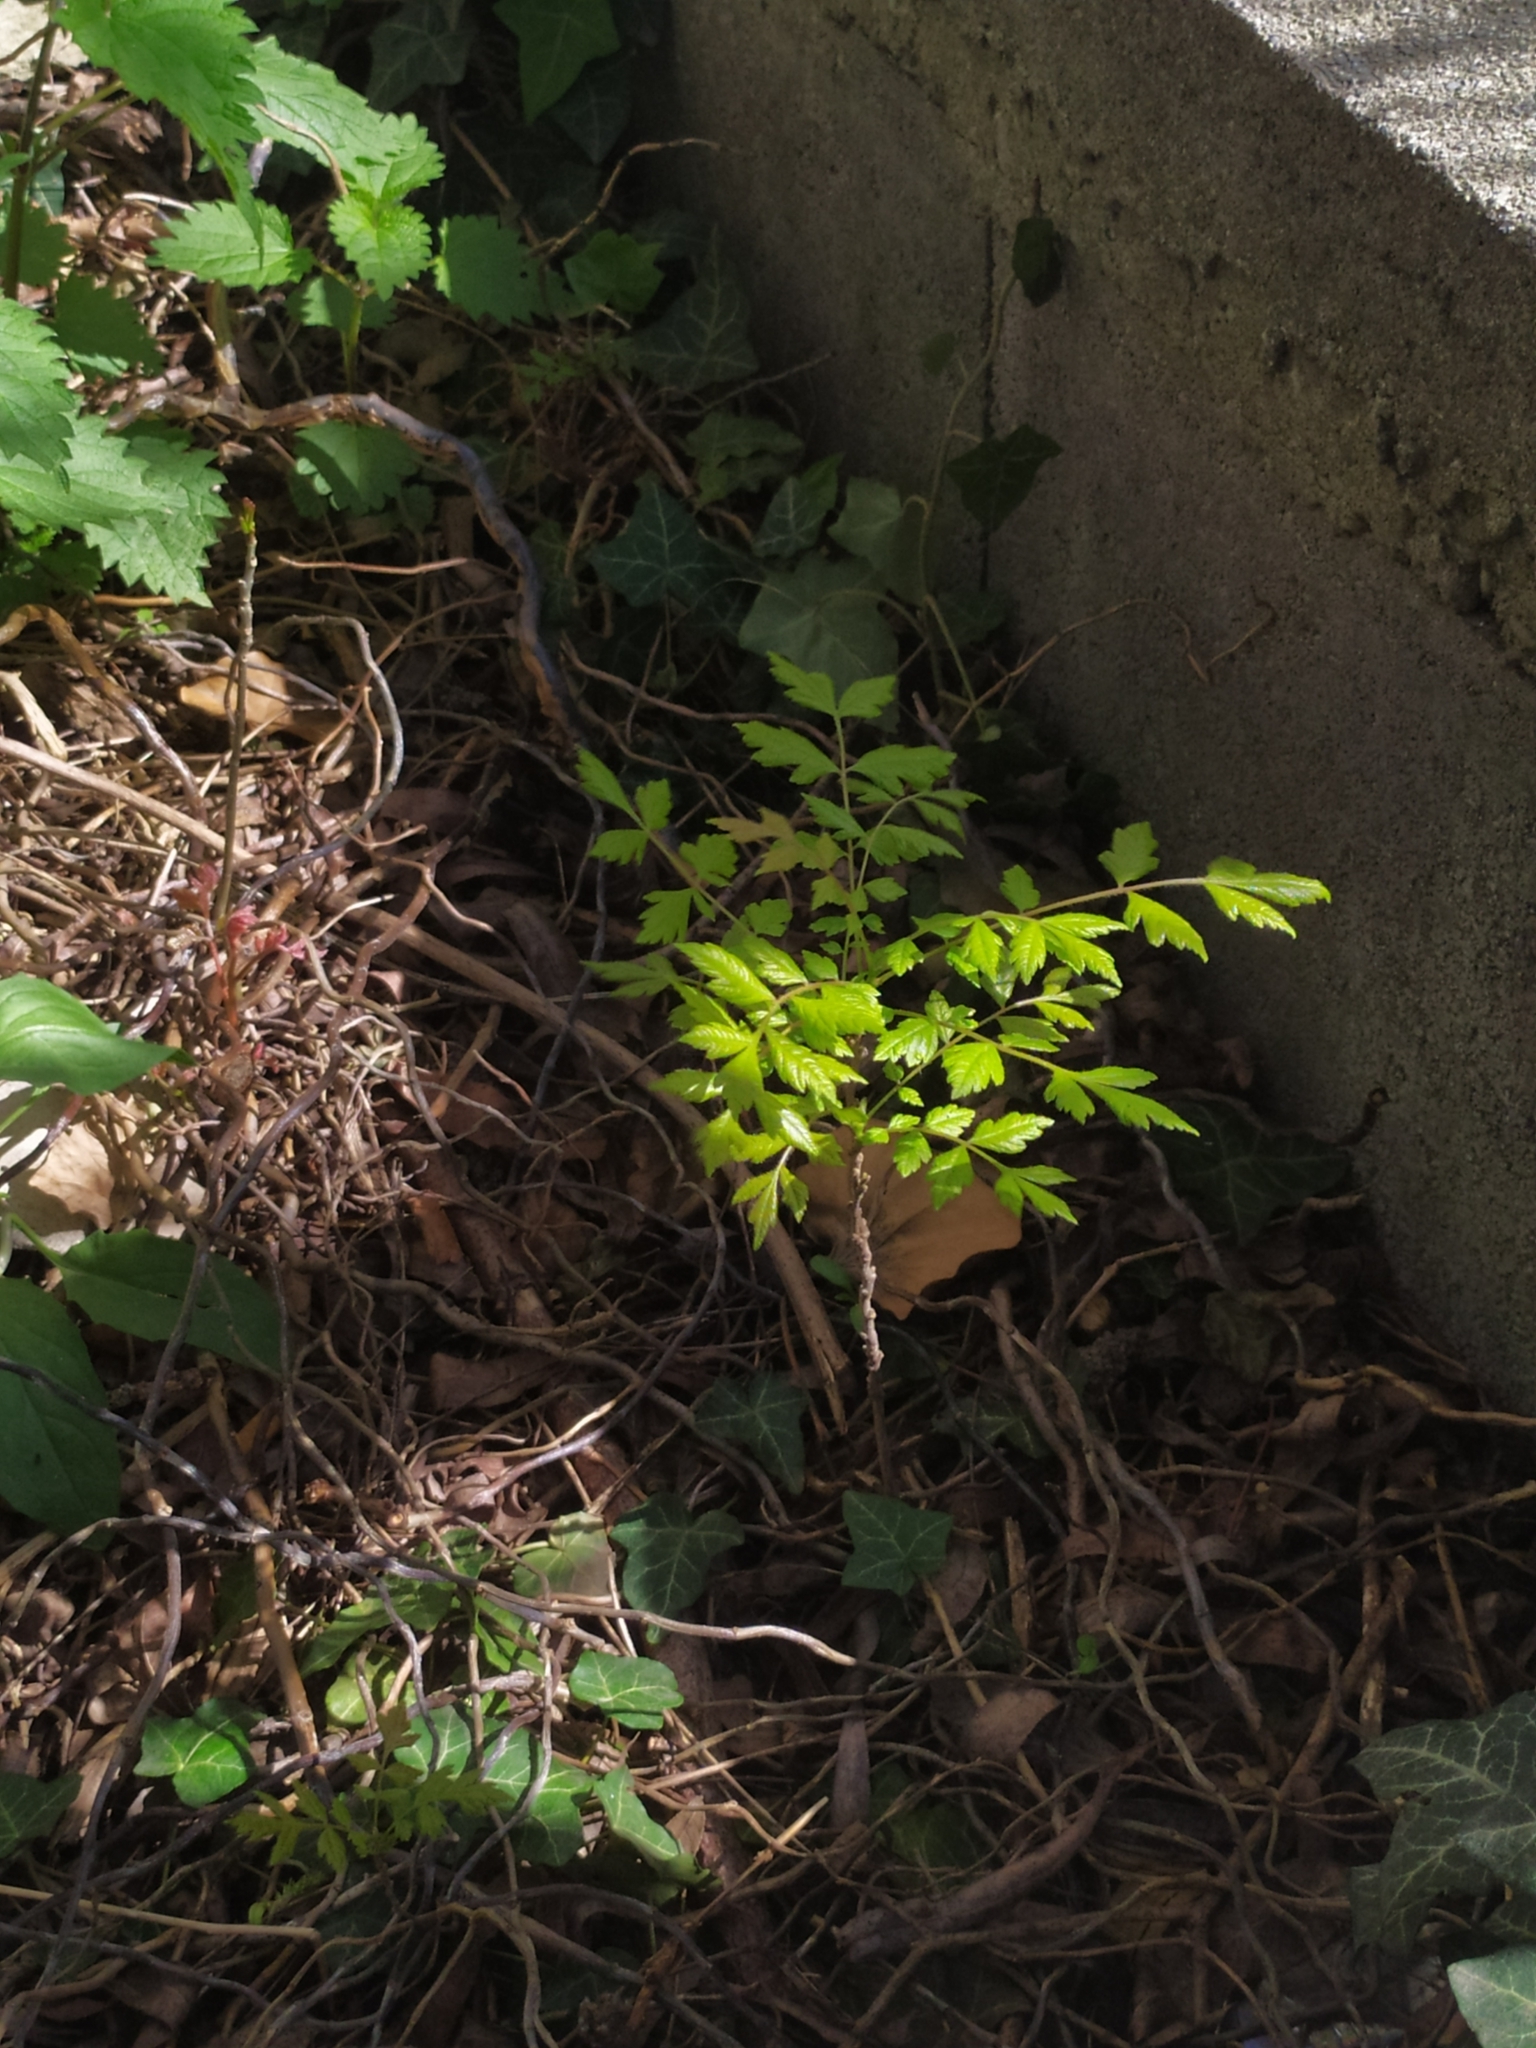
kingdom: Plantae
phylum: Tracheophyta
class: Magnoliopsida
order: Sapindales
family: Sapindaceae
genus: Koelreuteria
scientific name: Koelreuteria paniculata
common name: Pride-of-india
